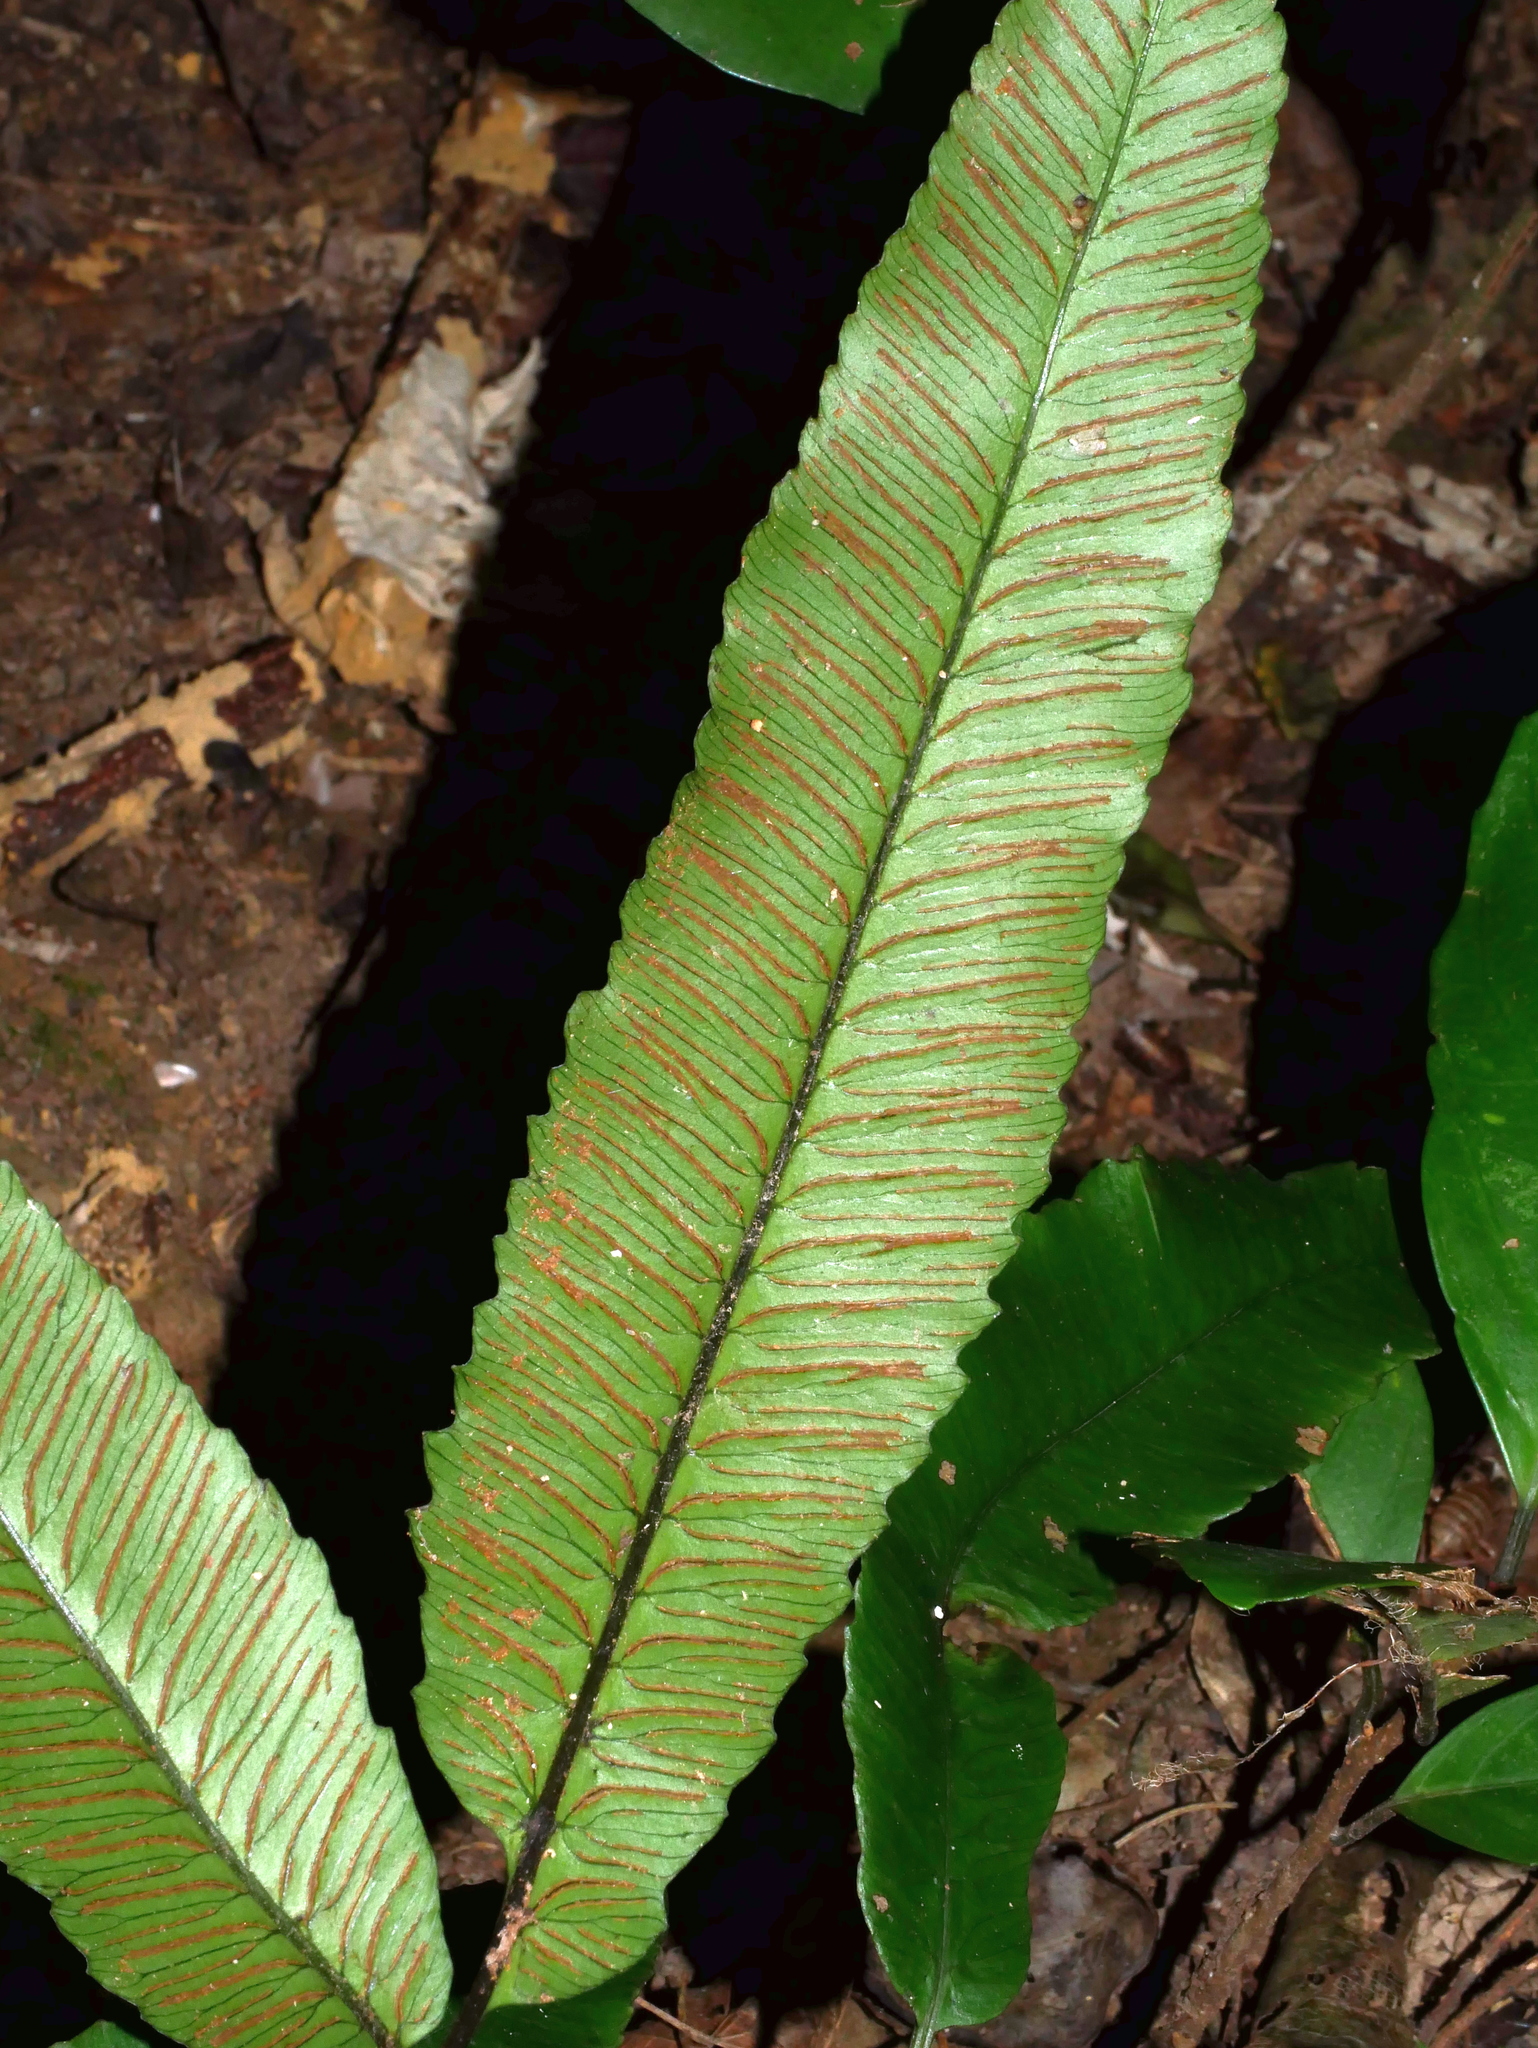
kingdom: Plantae
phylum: Tracheophyta
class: Polypodiopsida
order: Polypodiales
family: Athyriaceae
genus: Diplazium
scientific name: Diplazium ketagalaniorum
